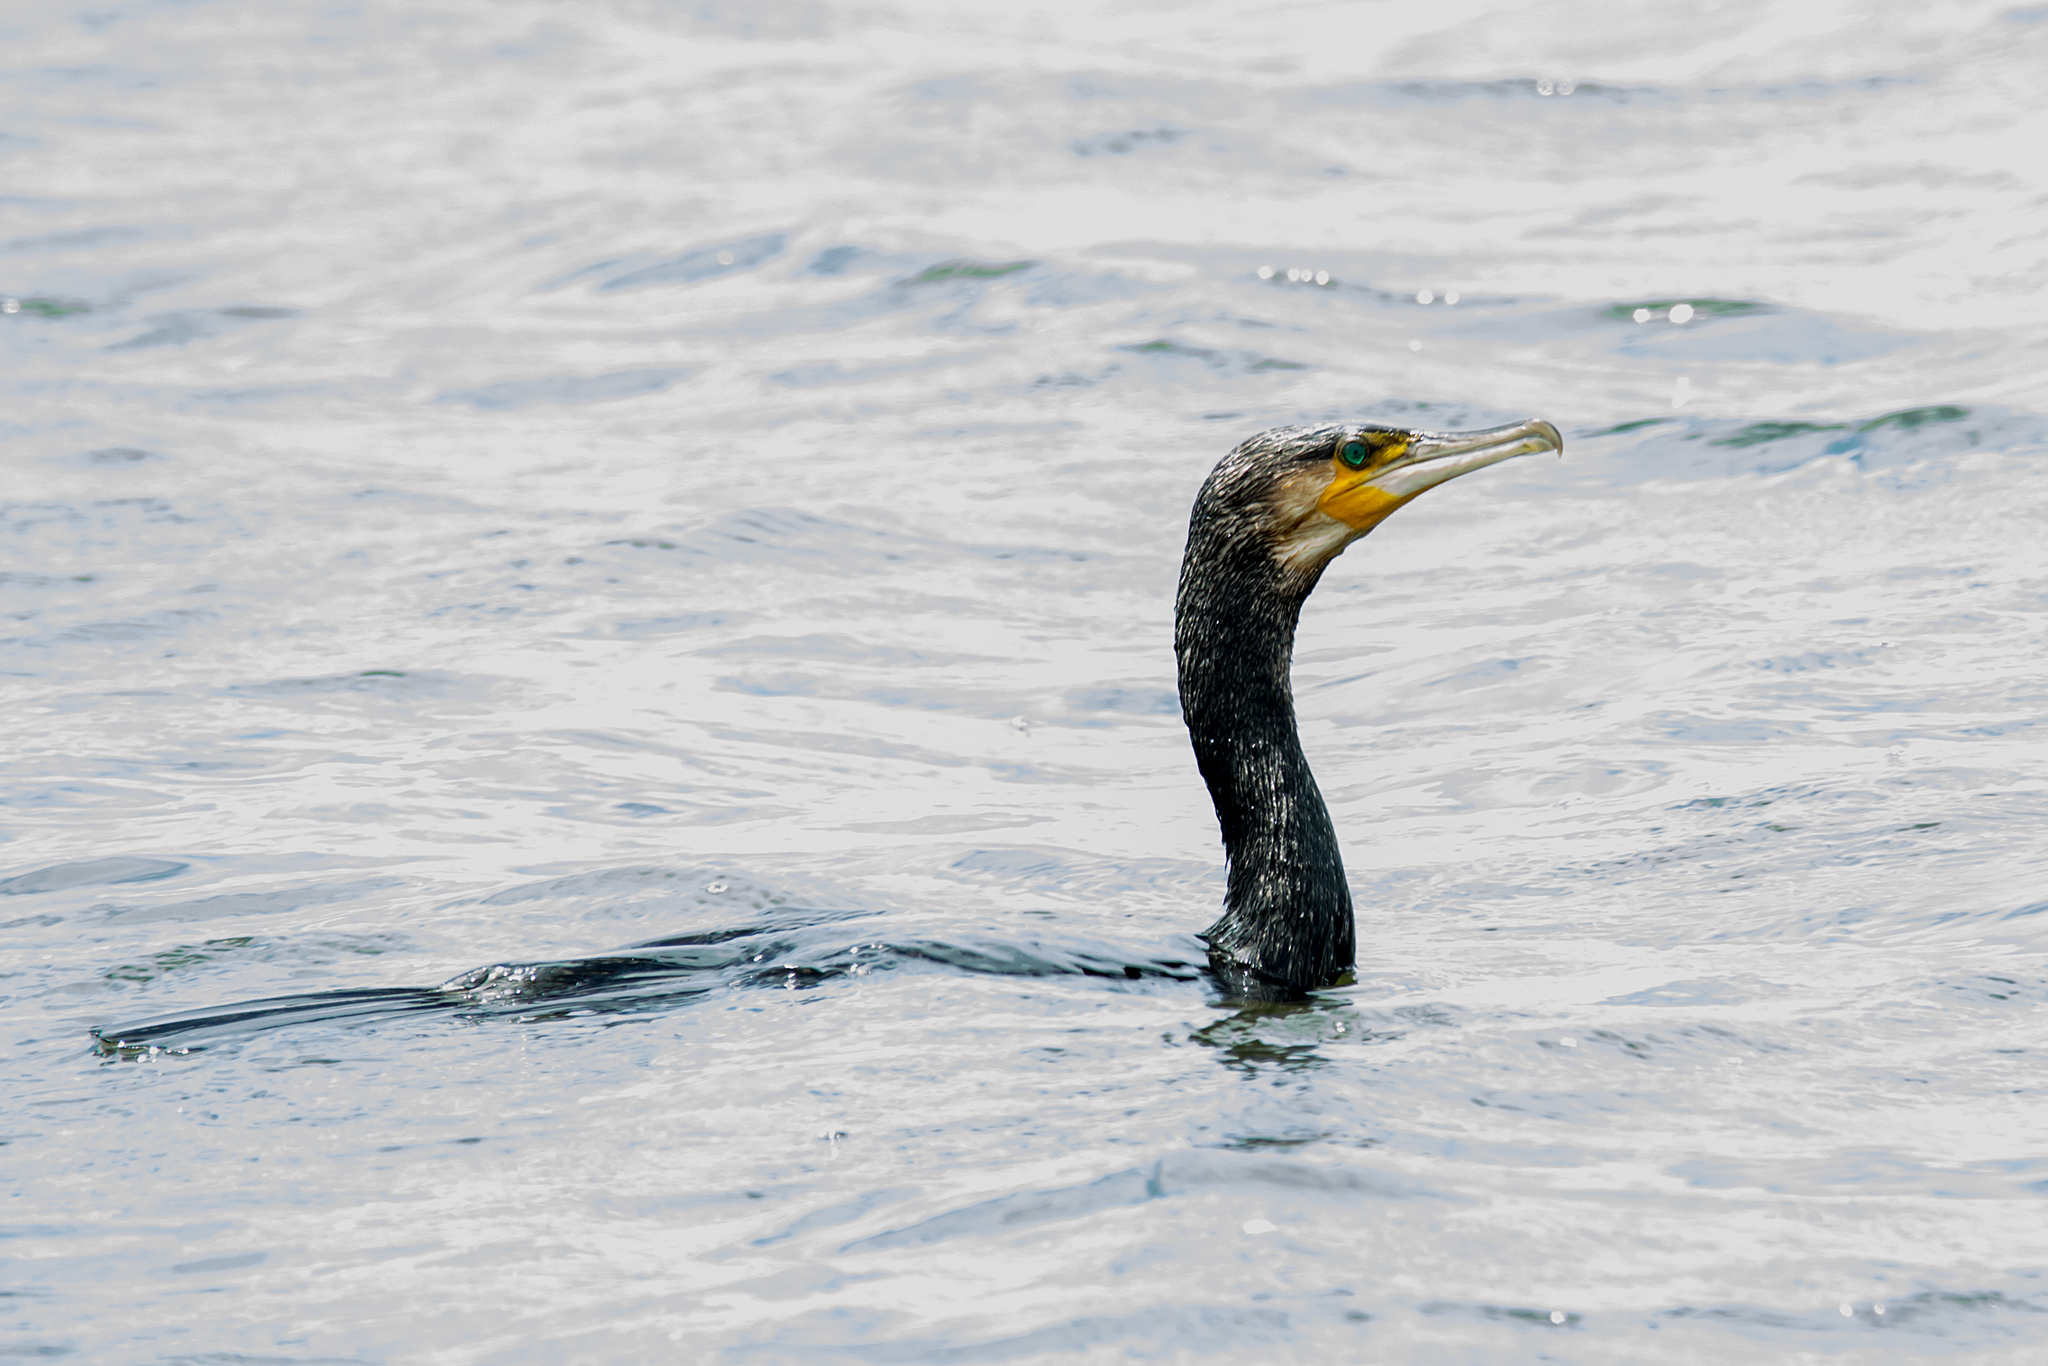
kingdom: Animalia
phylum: Chordata
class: Aves
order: Suliformes
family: Phalacrocoracidae
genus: Phalacrocorax
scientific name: Phalacrocorax carbo
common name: Great cormorant
